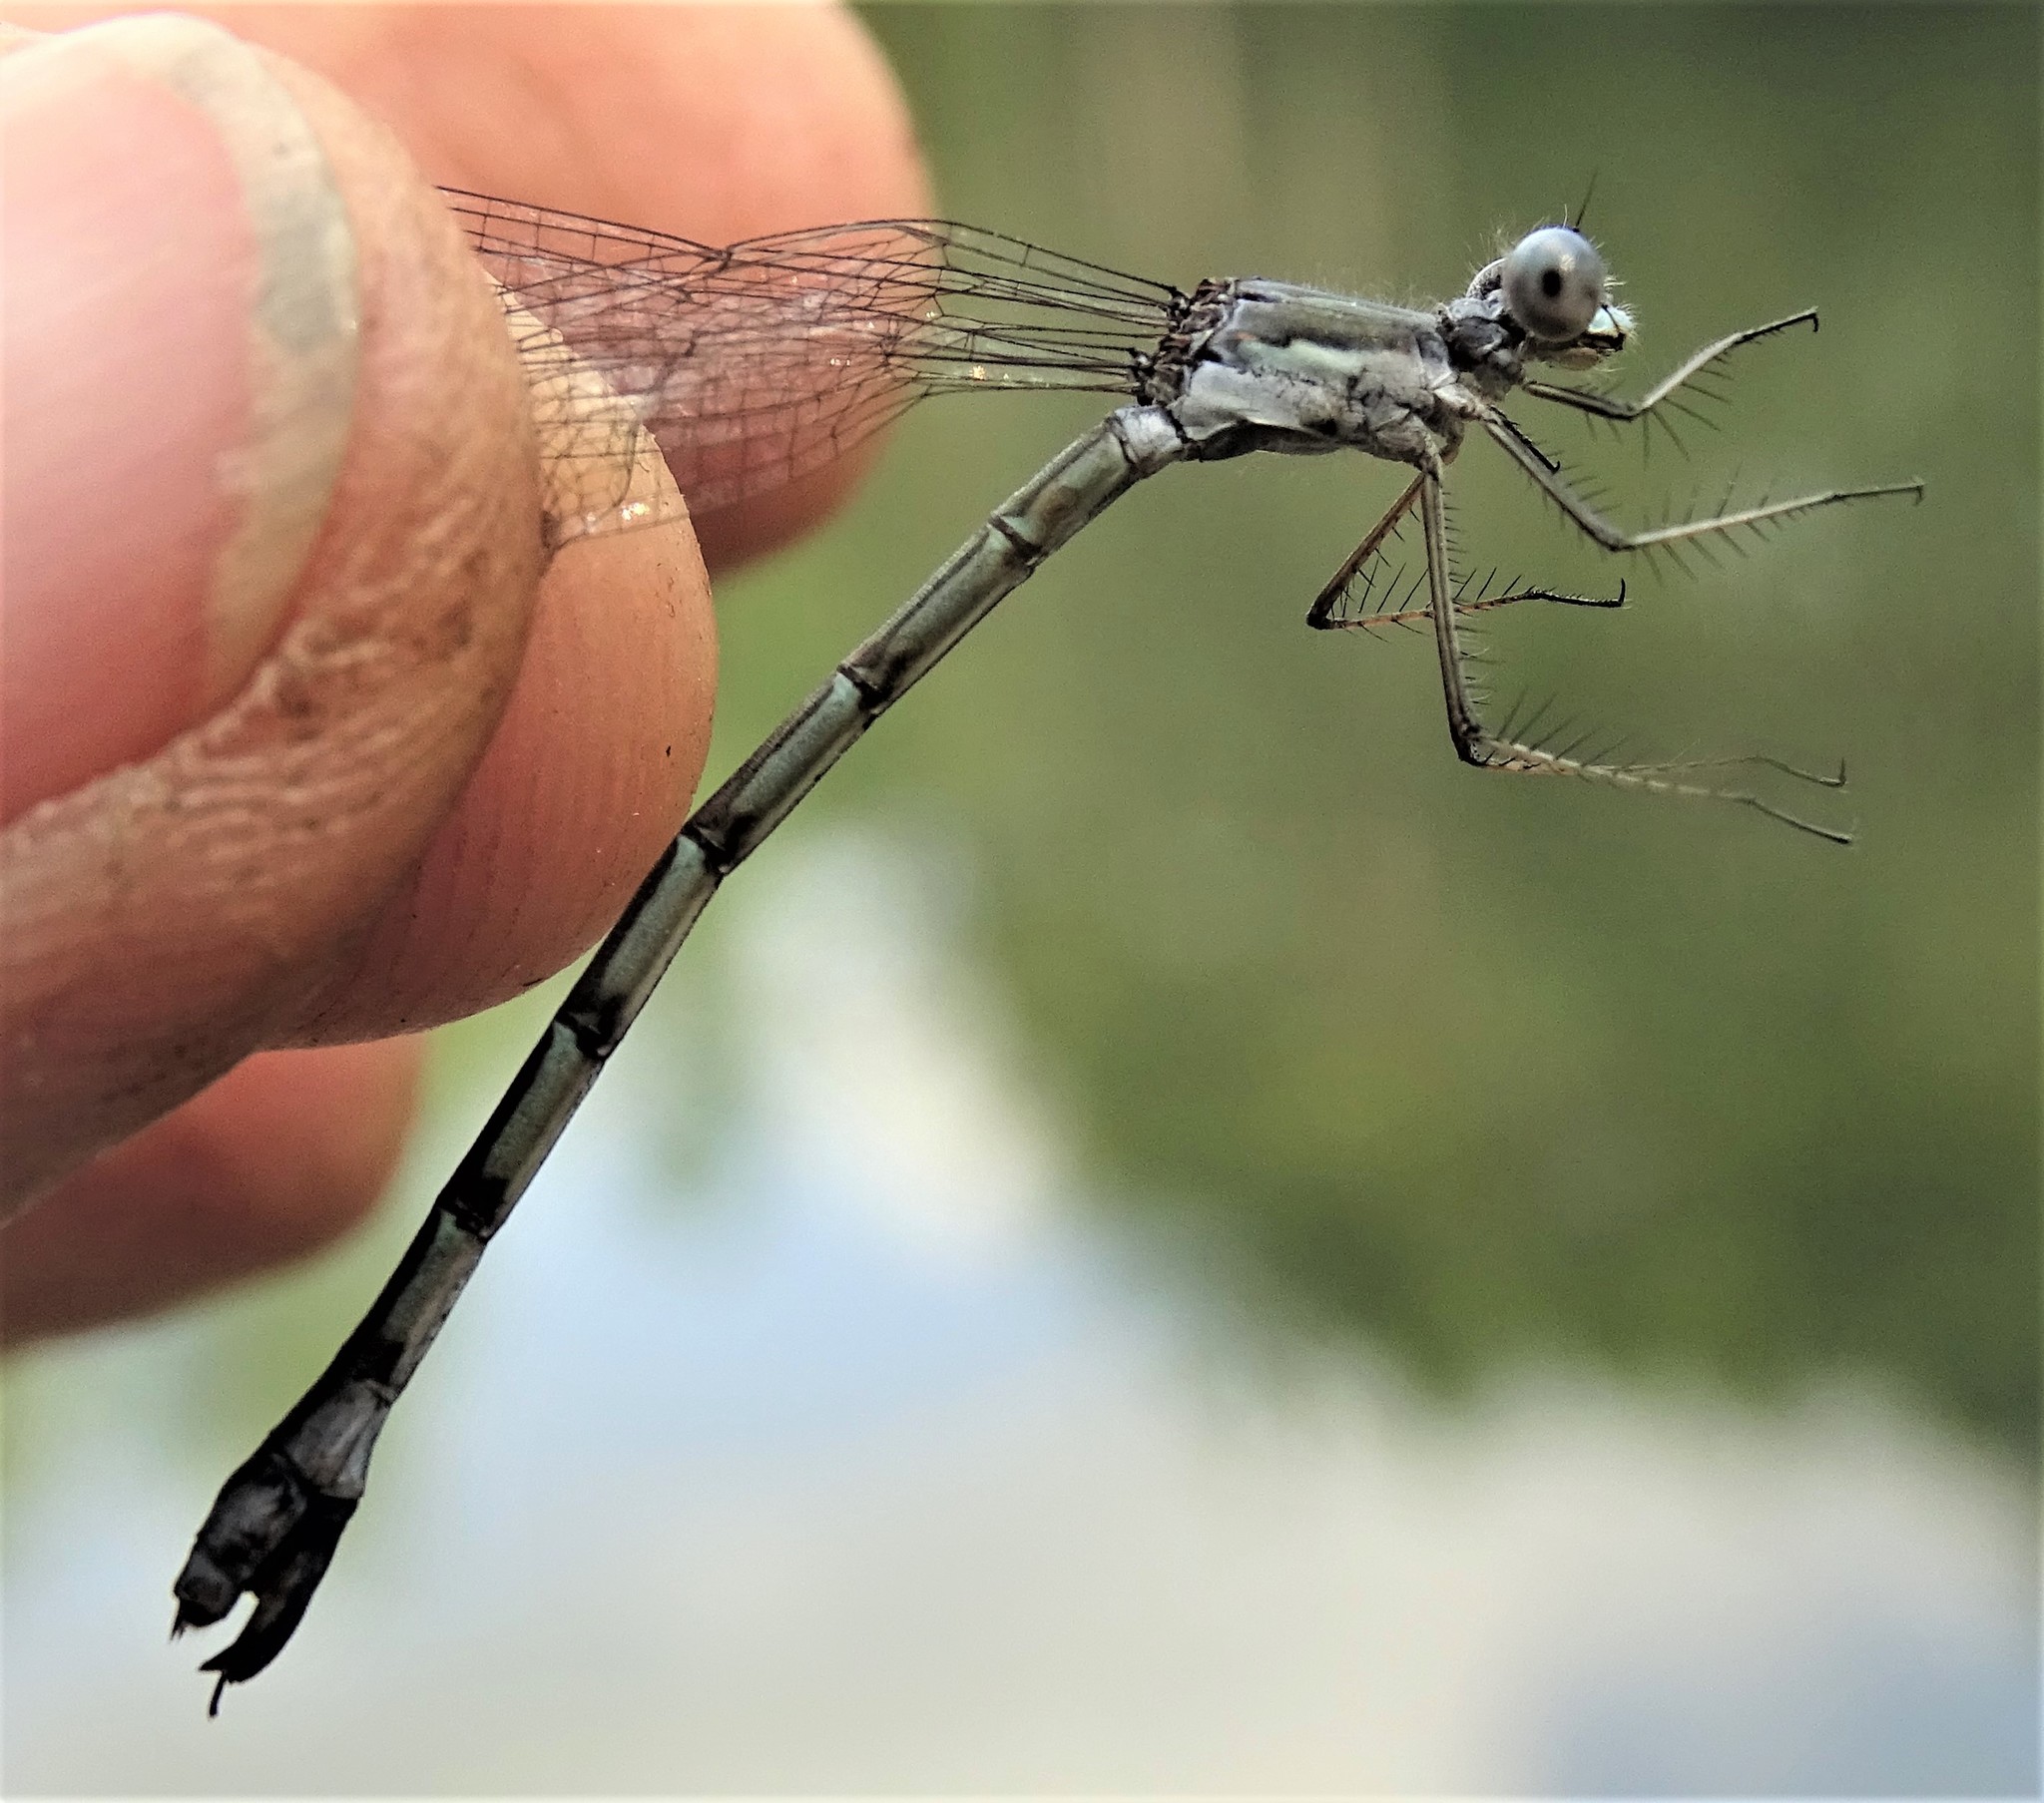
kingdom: Animalia
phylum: Arthropoda
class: Insecta
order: Odonata
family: Lestidae
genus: Lestes
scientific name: Lestes forcipatus
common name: Sweetflag spreadwing
